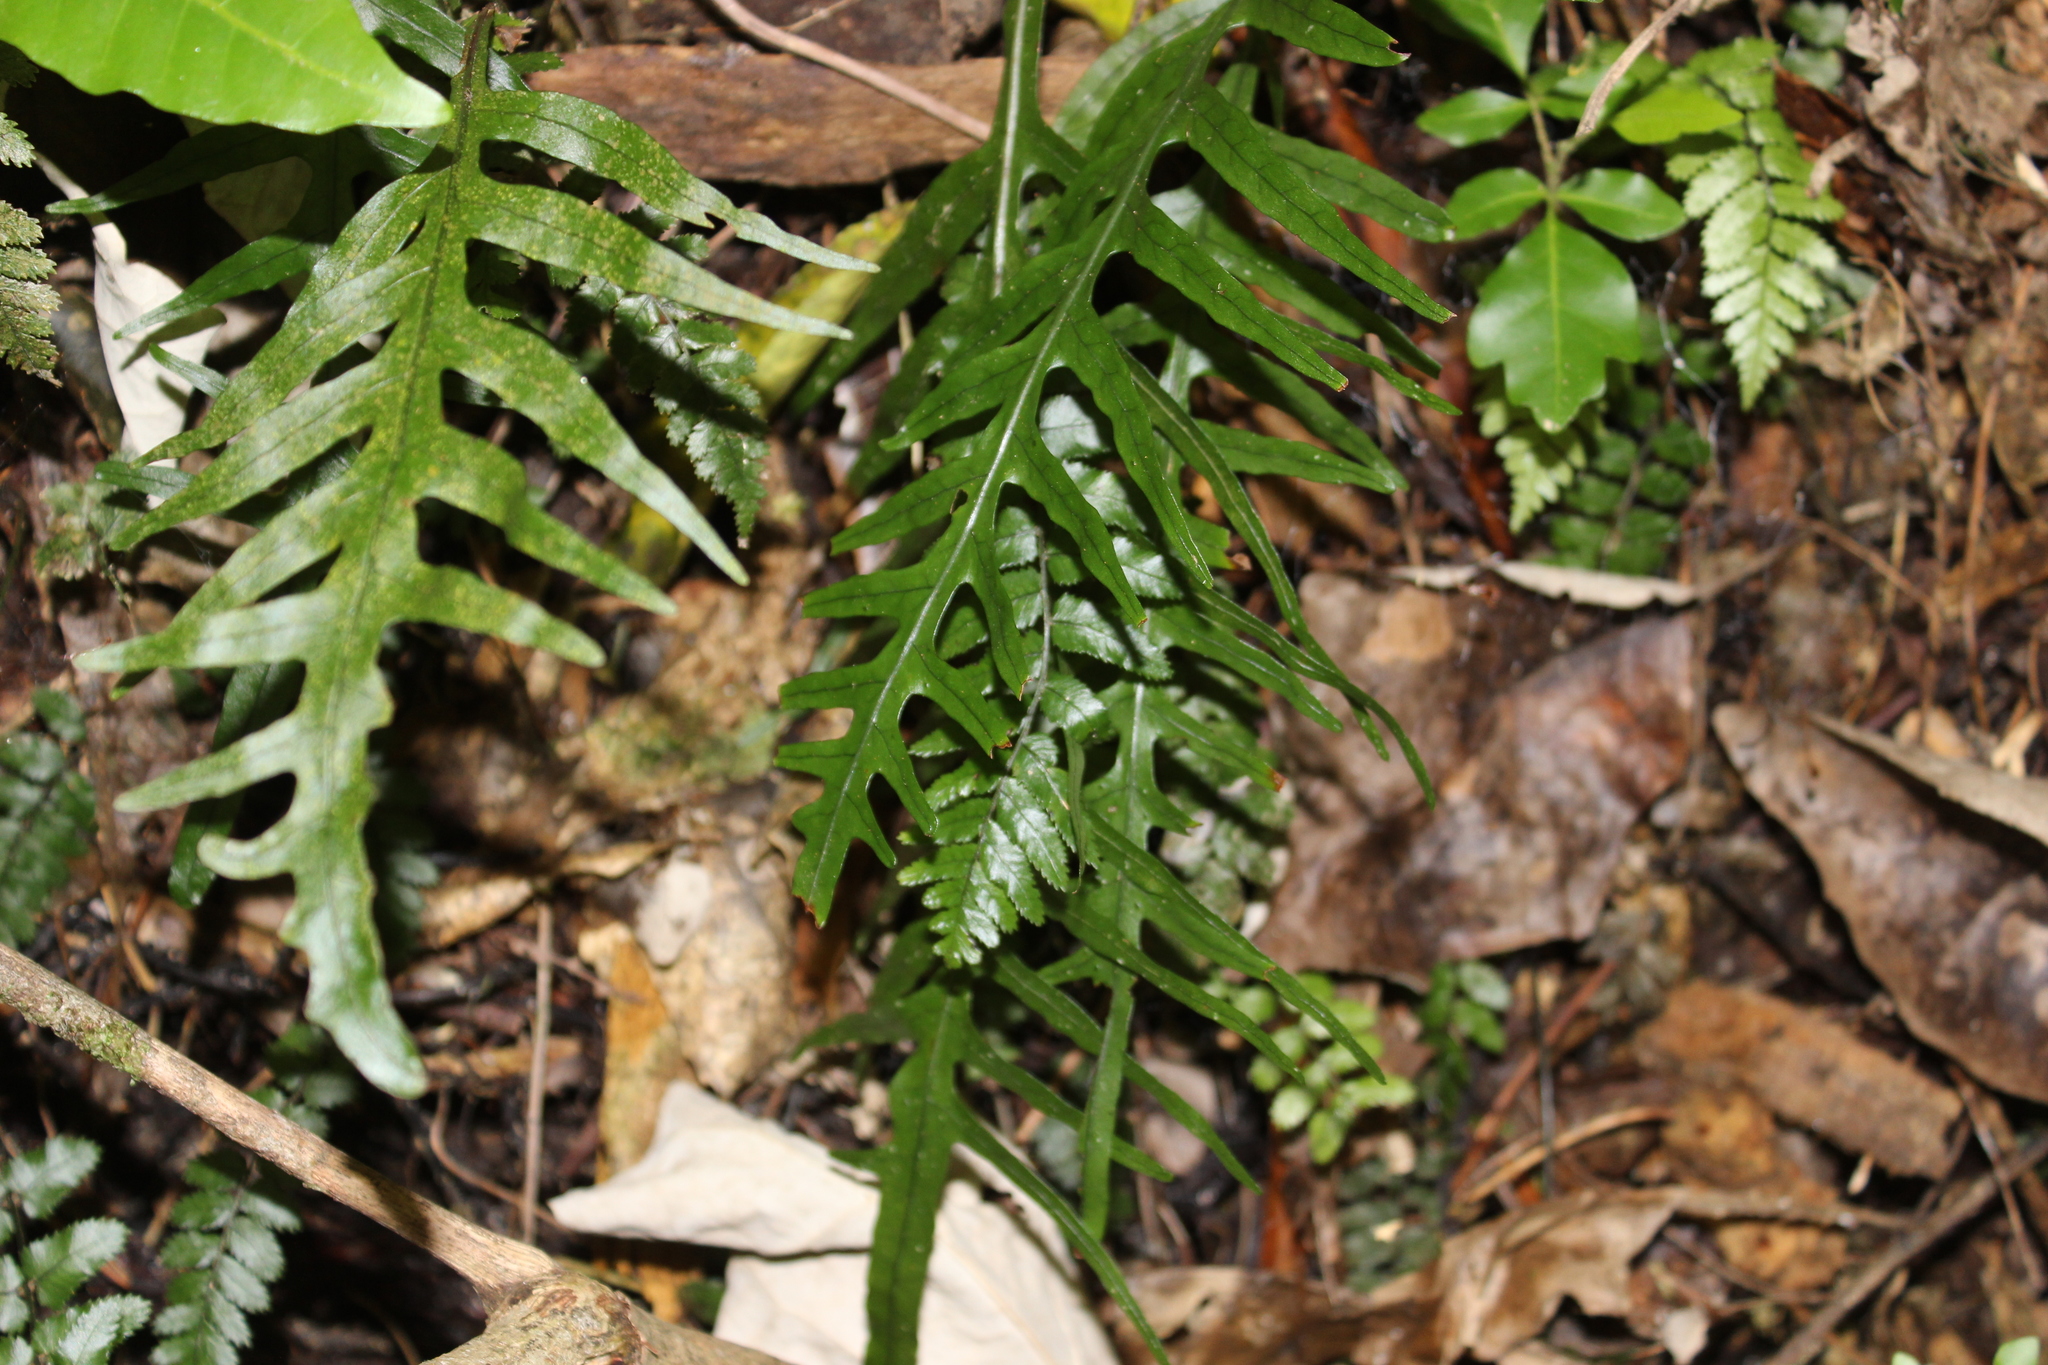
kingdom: Plantae
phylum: Tracheophyta
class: Polypodiopsida
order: Polypodiales
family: Polypodiaceae
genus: Lecanopteris
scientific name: Lecanopteris scandens
